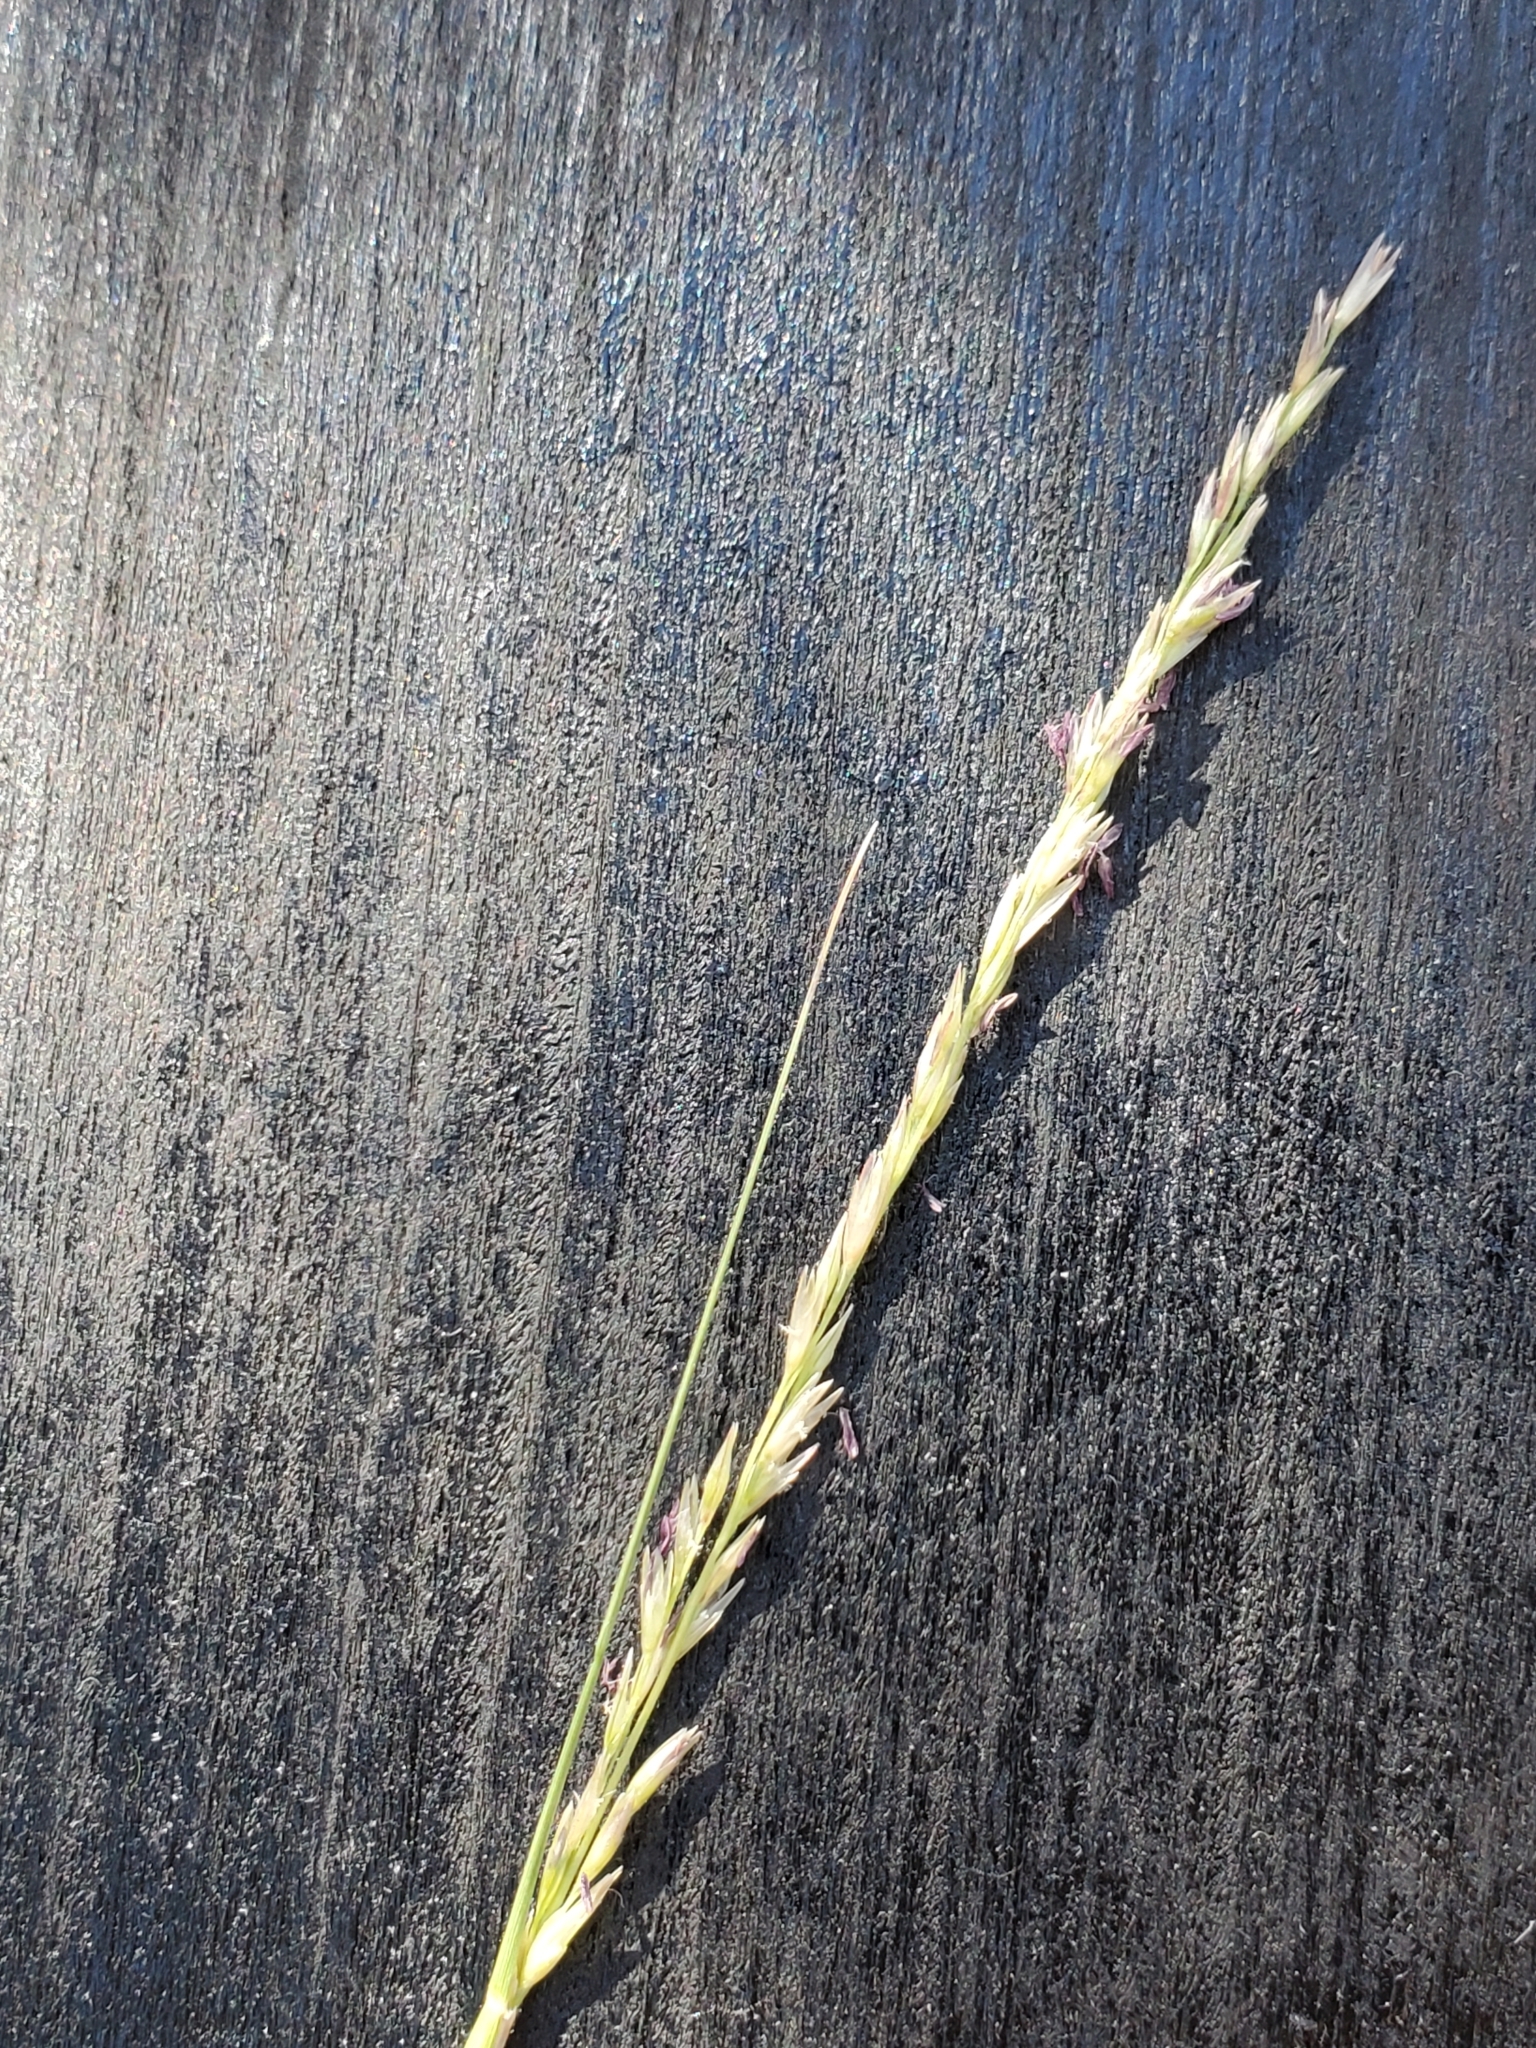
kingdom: Plantae
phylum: Tracheophyta
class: Liliopsida
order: Poales
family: Poaceae
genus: Sporobolus
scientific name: Sporobolus compositus
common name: Rough dropseed
